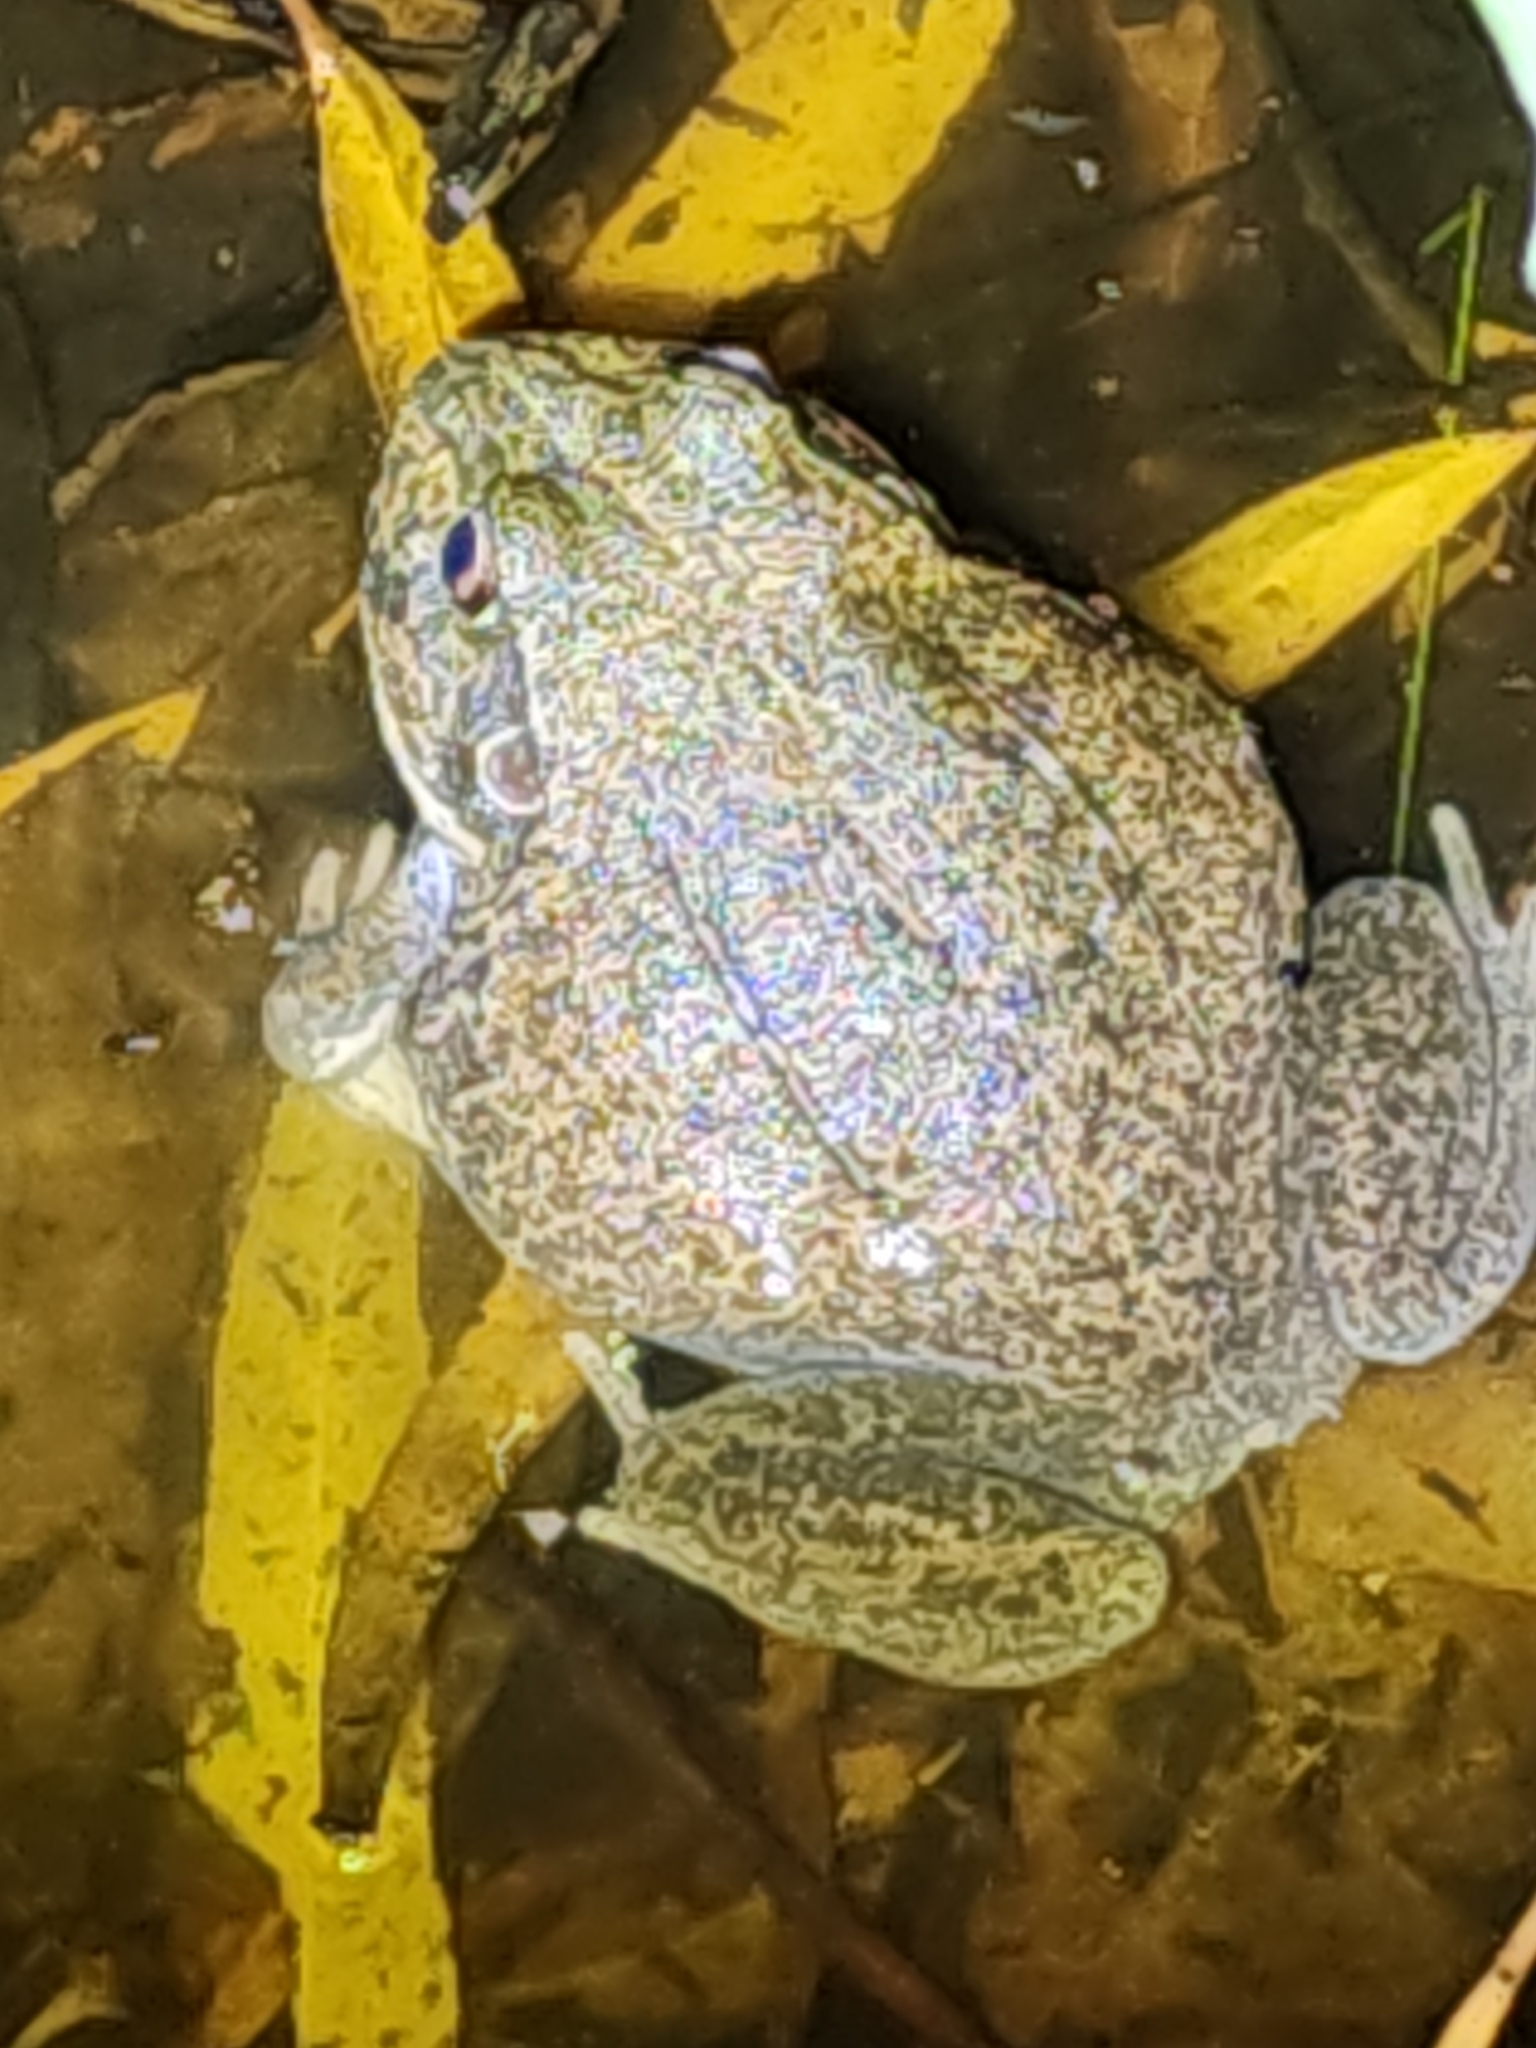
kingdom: Animalia
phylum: Chordata
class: Amphibia
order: Anura
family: Pelodryadidae
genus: Ranoidea
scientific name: Ranoidea novaehollandiae
